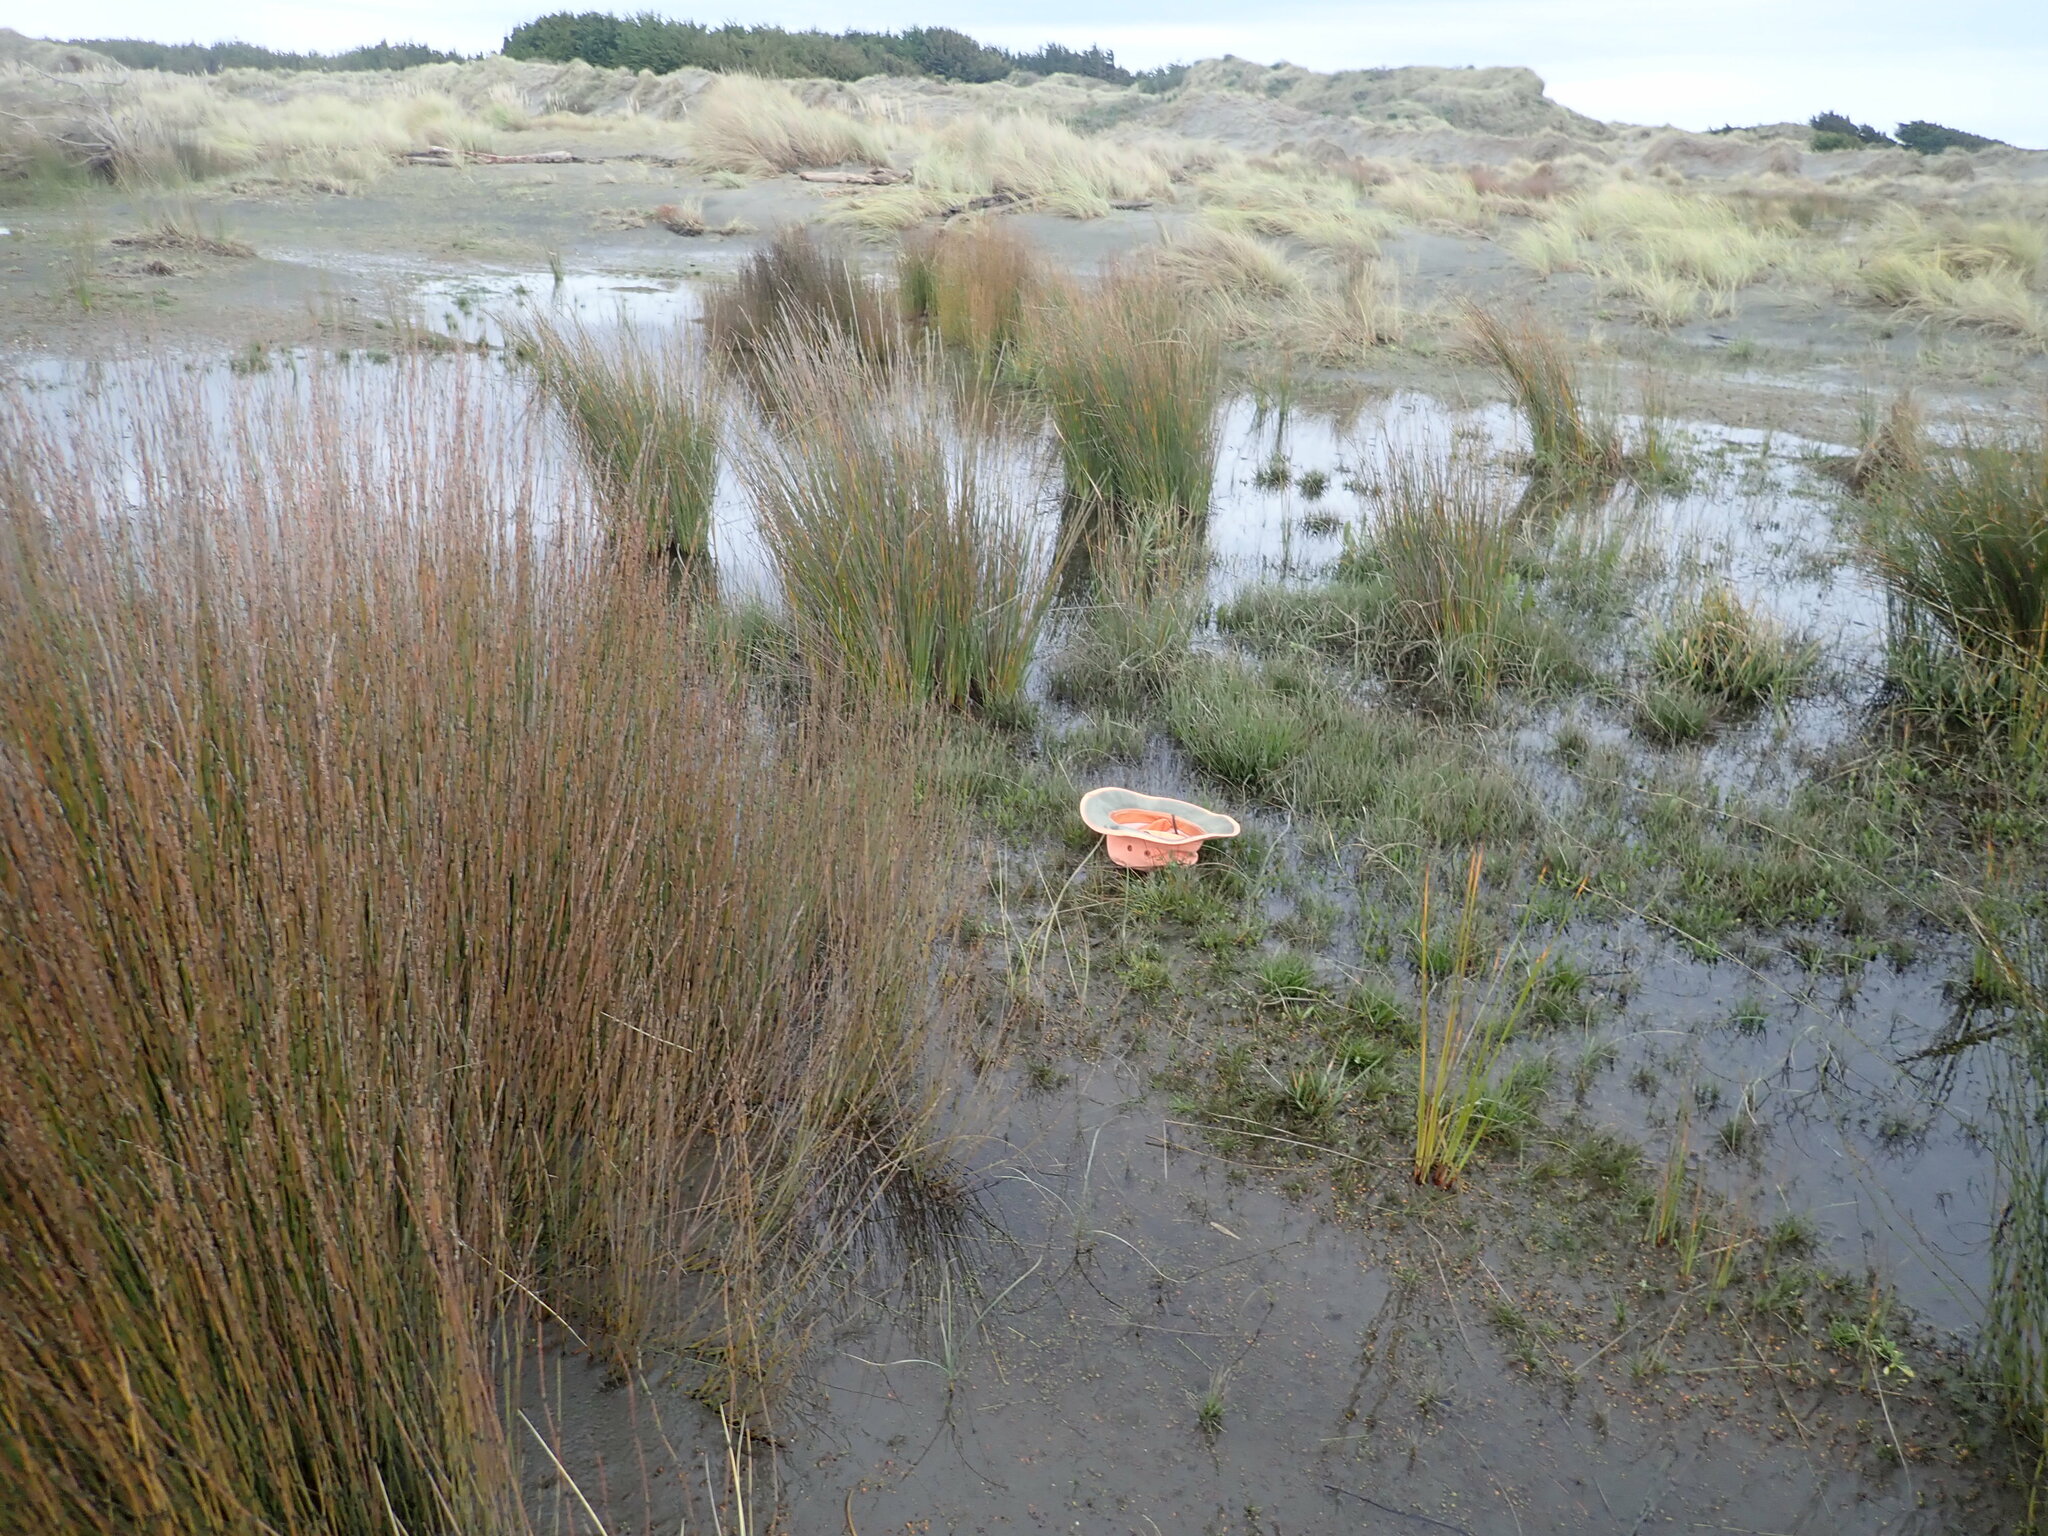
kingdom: Plantae
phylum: Tracheophyta
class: Liliopsida
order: Poales
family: Juncaceae
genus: Juncus
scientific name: Juncus caespiticius
